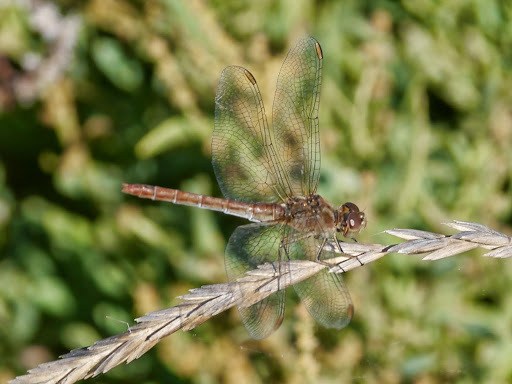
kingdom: Animalia
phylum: Arthropoda
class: Insecta
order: Odonata
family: Libellulidae
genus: Sympetrum
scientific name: Sympetrum meridionale
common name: Southern darter
